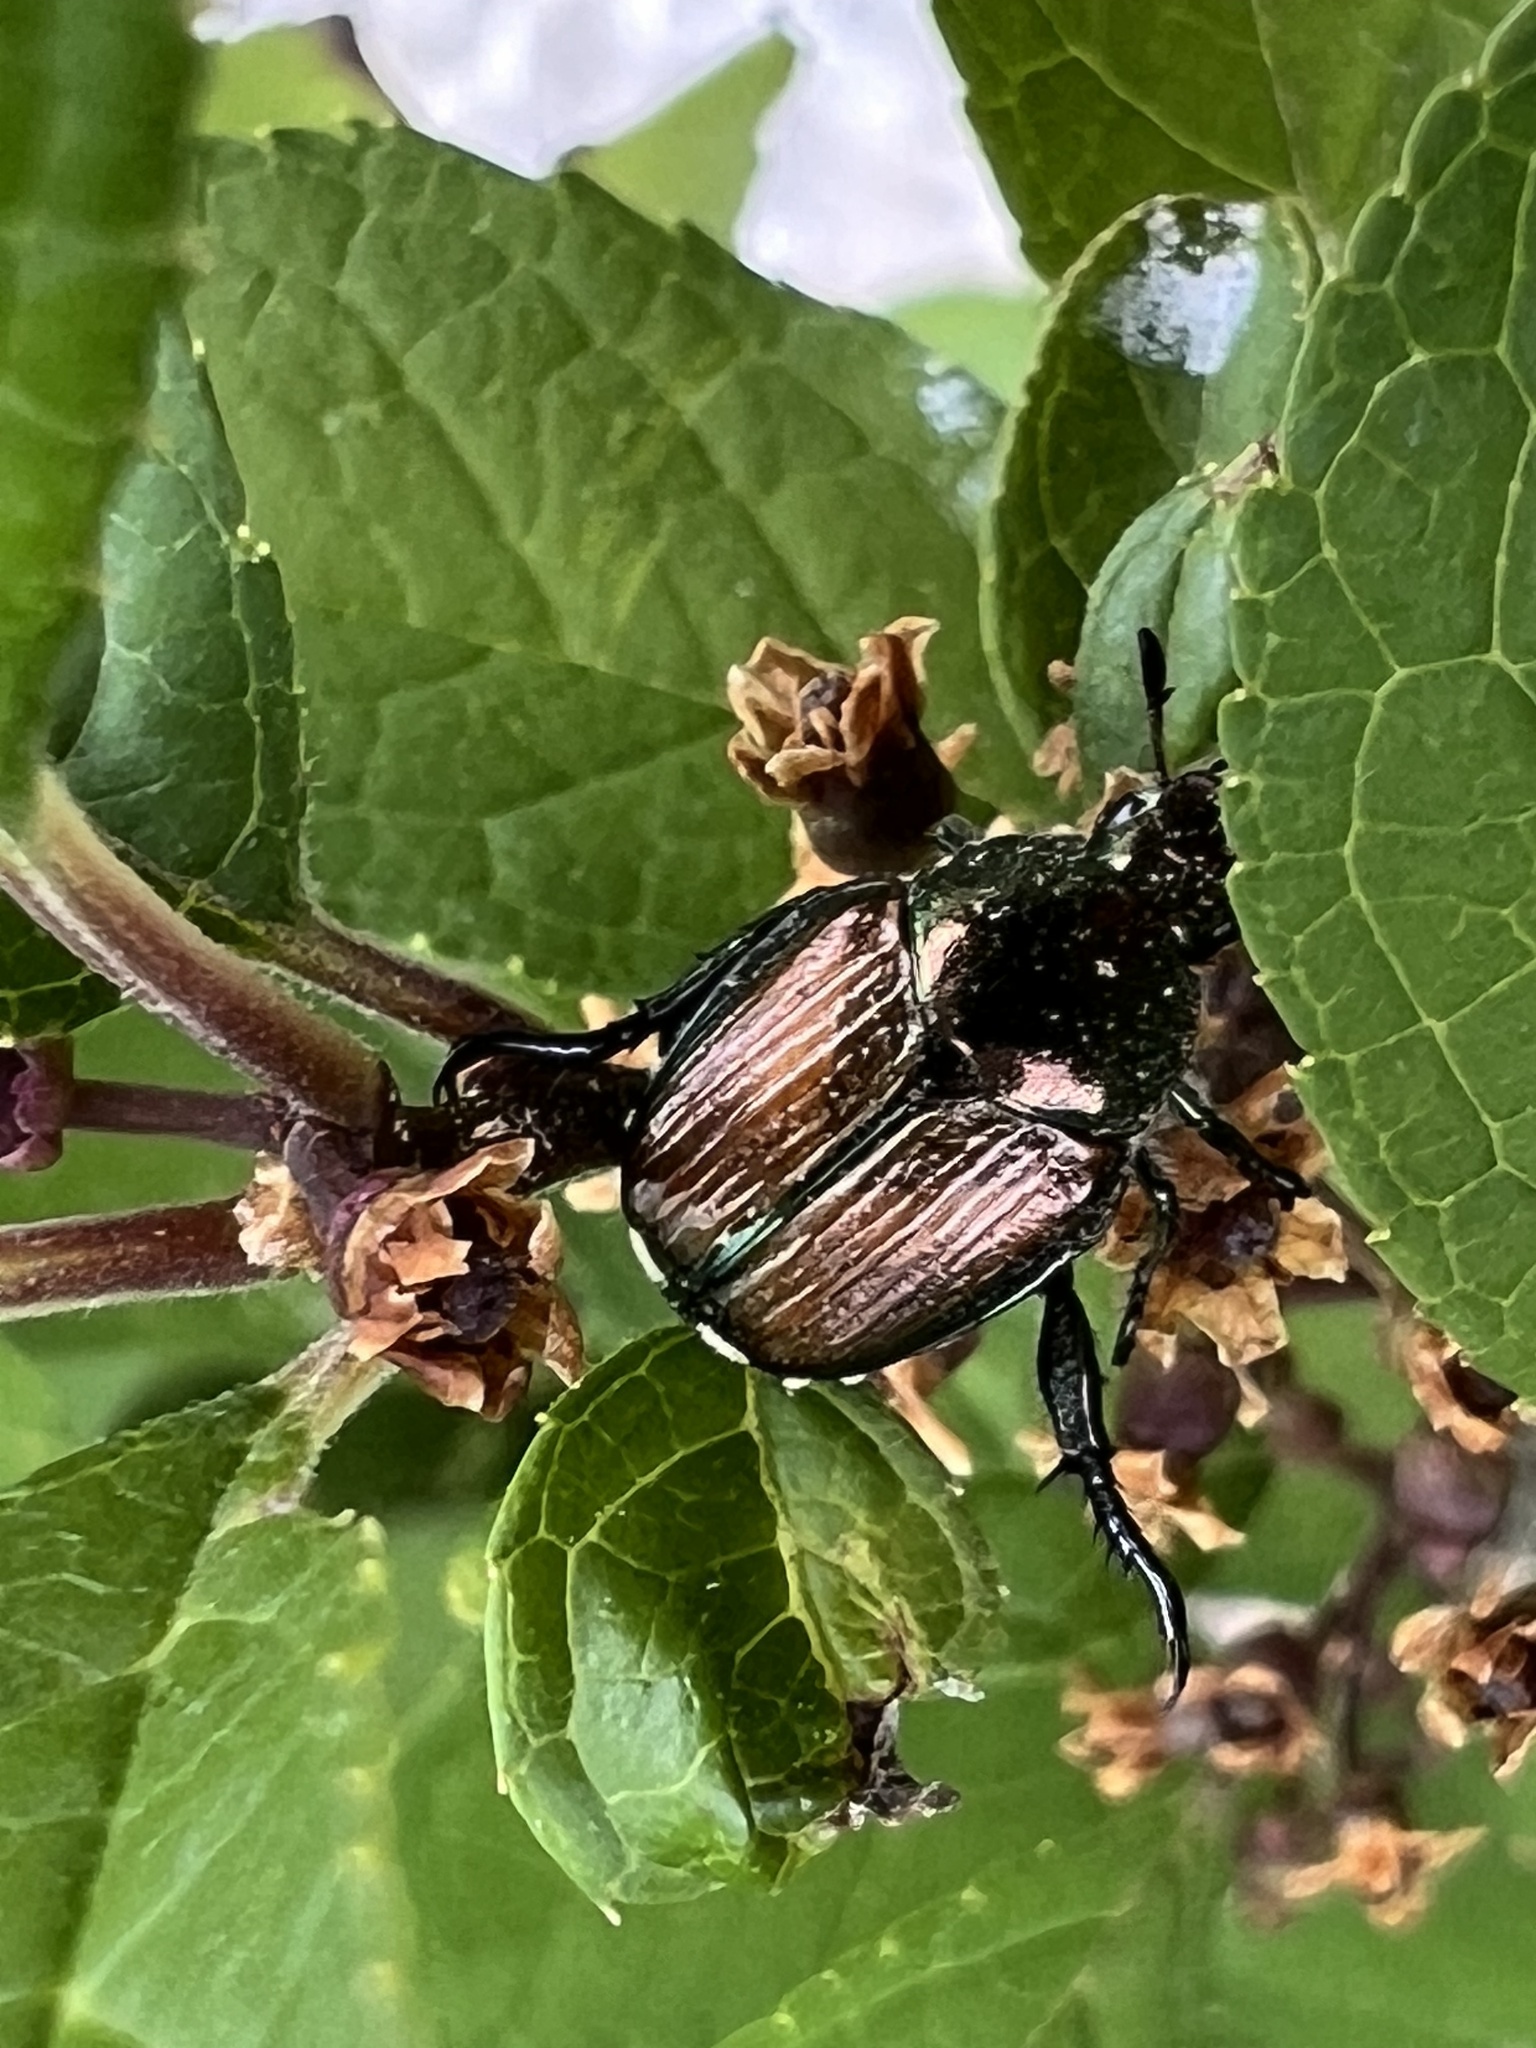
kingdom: Animalia
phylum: Arthropoda
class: Insecta
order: Coleoptera
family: Scarabaeidae
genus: Popillia
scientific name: Popillia japonica
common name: Japanese beetle
